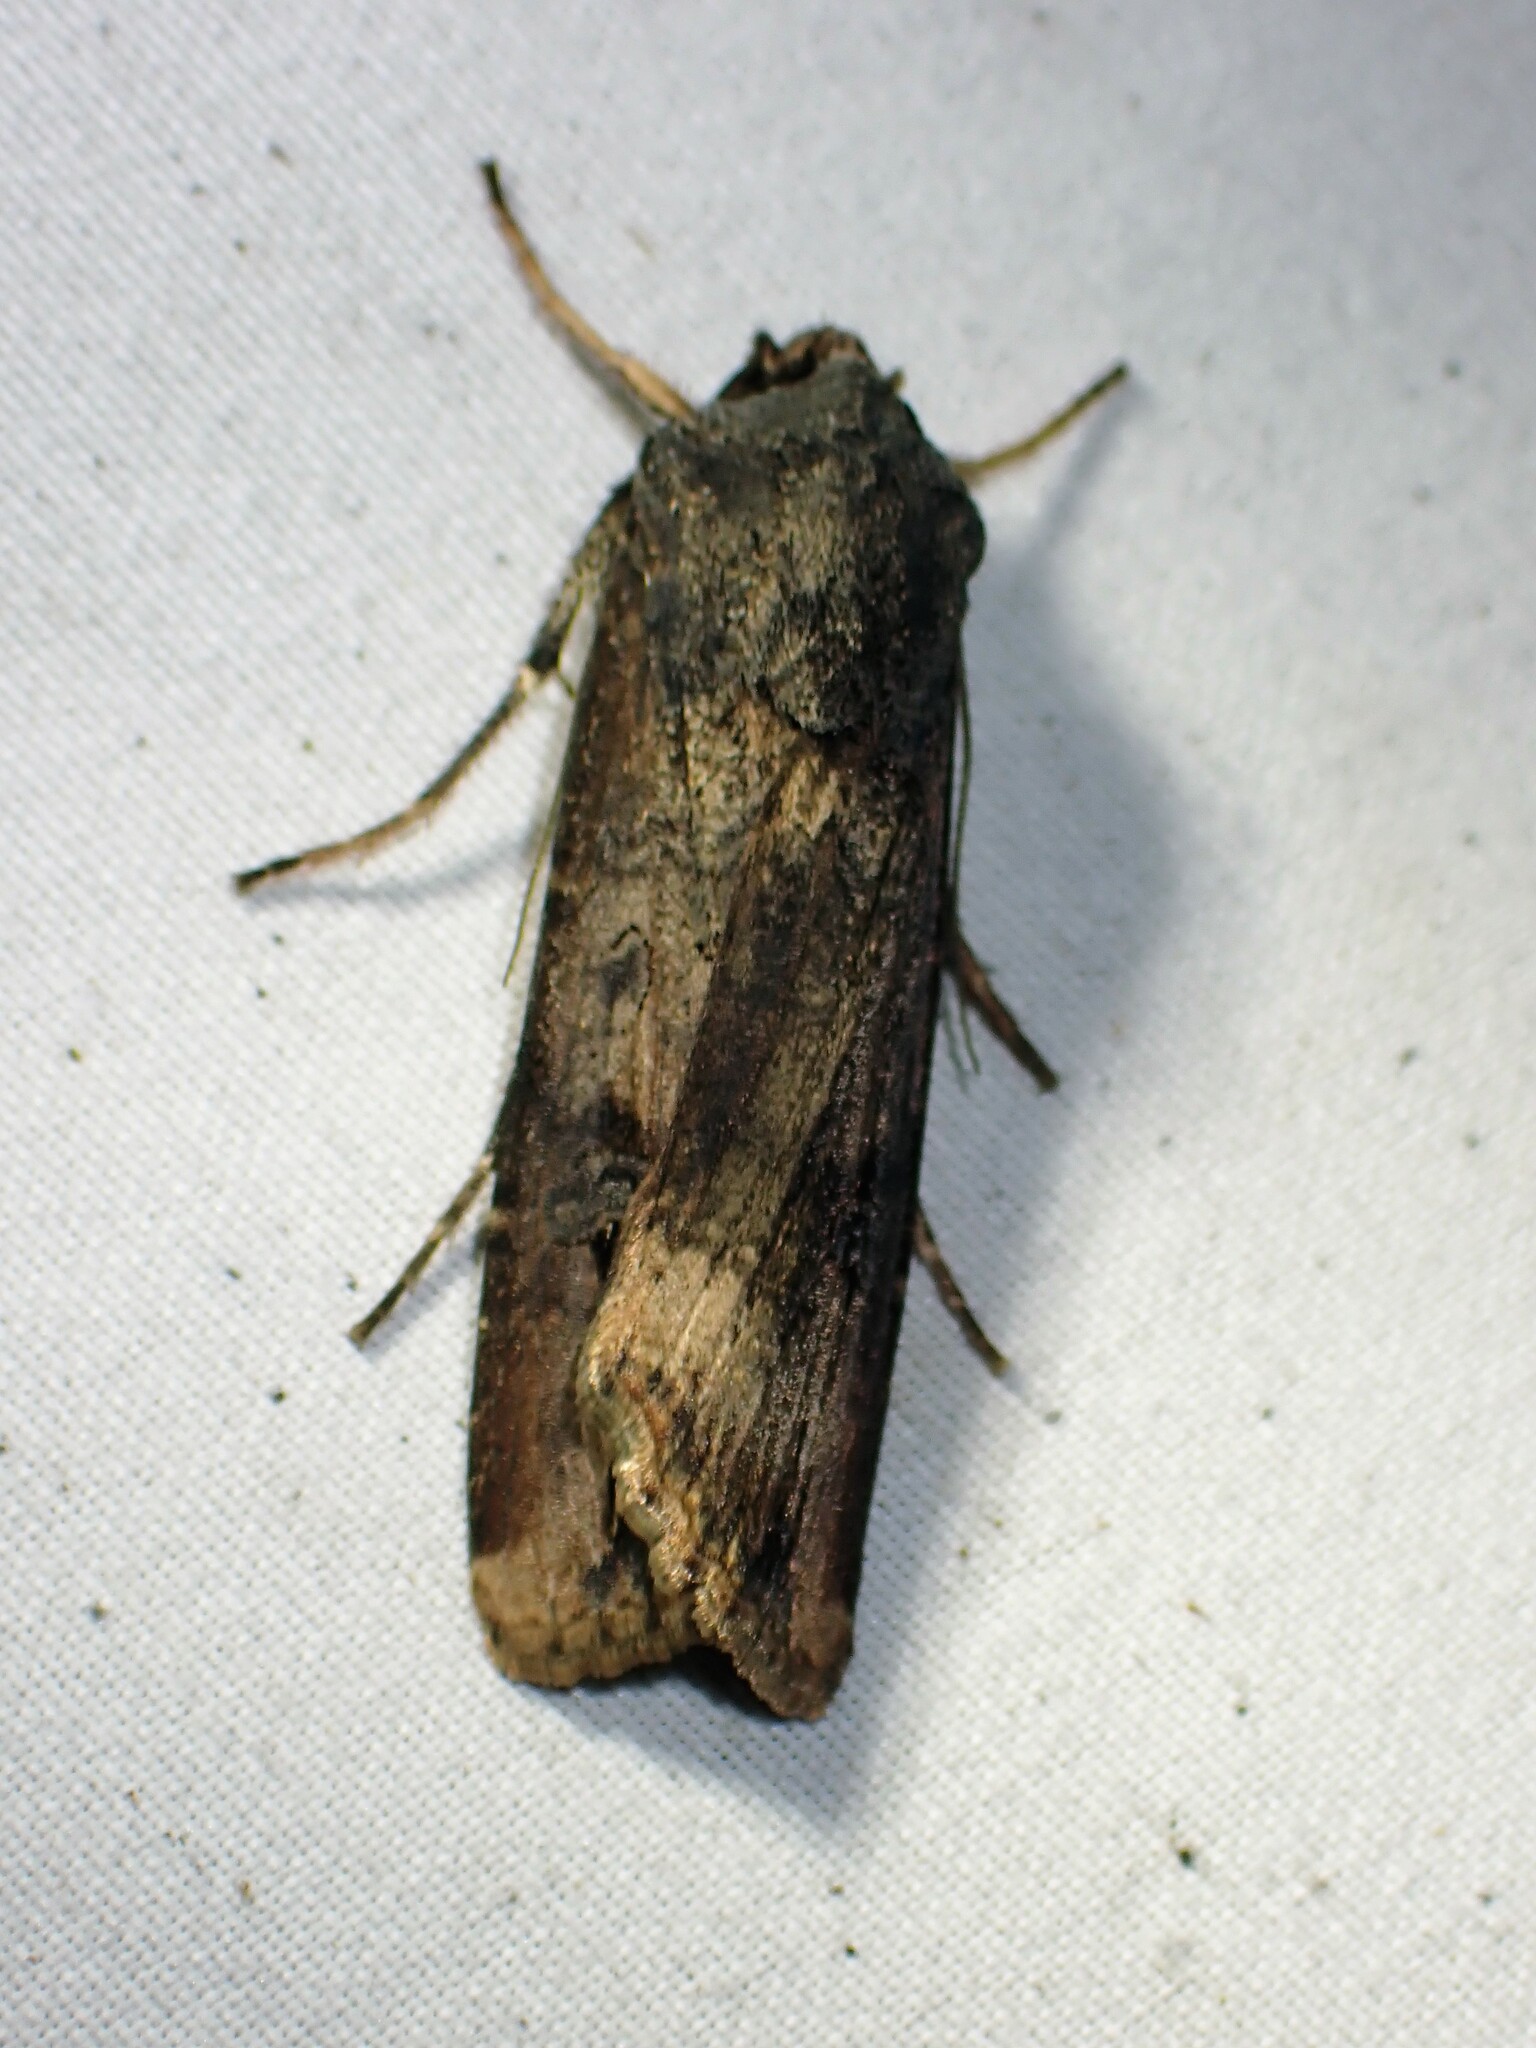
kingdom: Animalia
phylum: Arthropoda
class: Insecta
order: Lepidoptera
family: Noctuidae
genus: Agrotis
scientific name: Agrotis ipsilon
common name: Dark sword-grass
